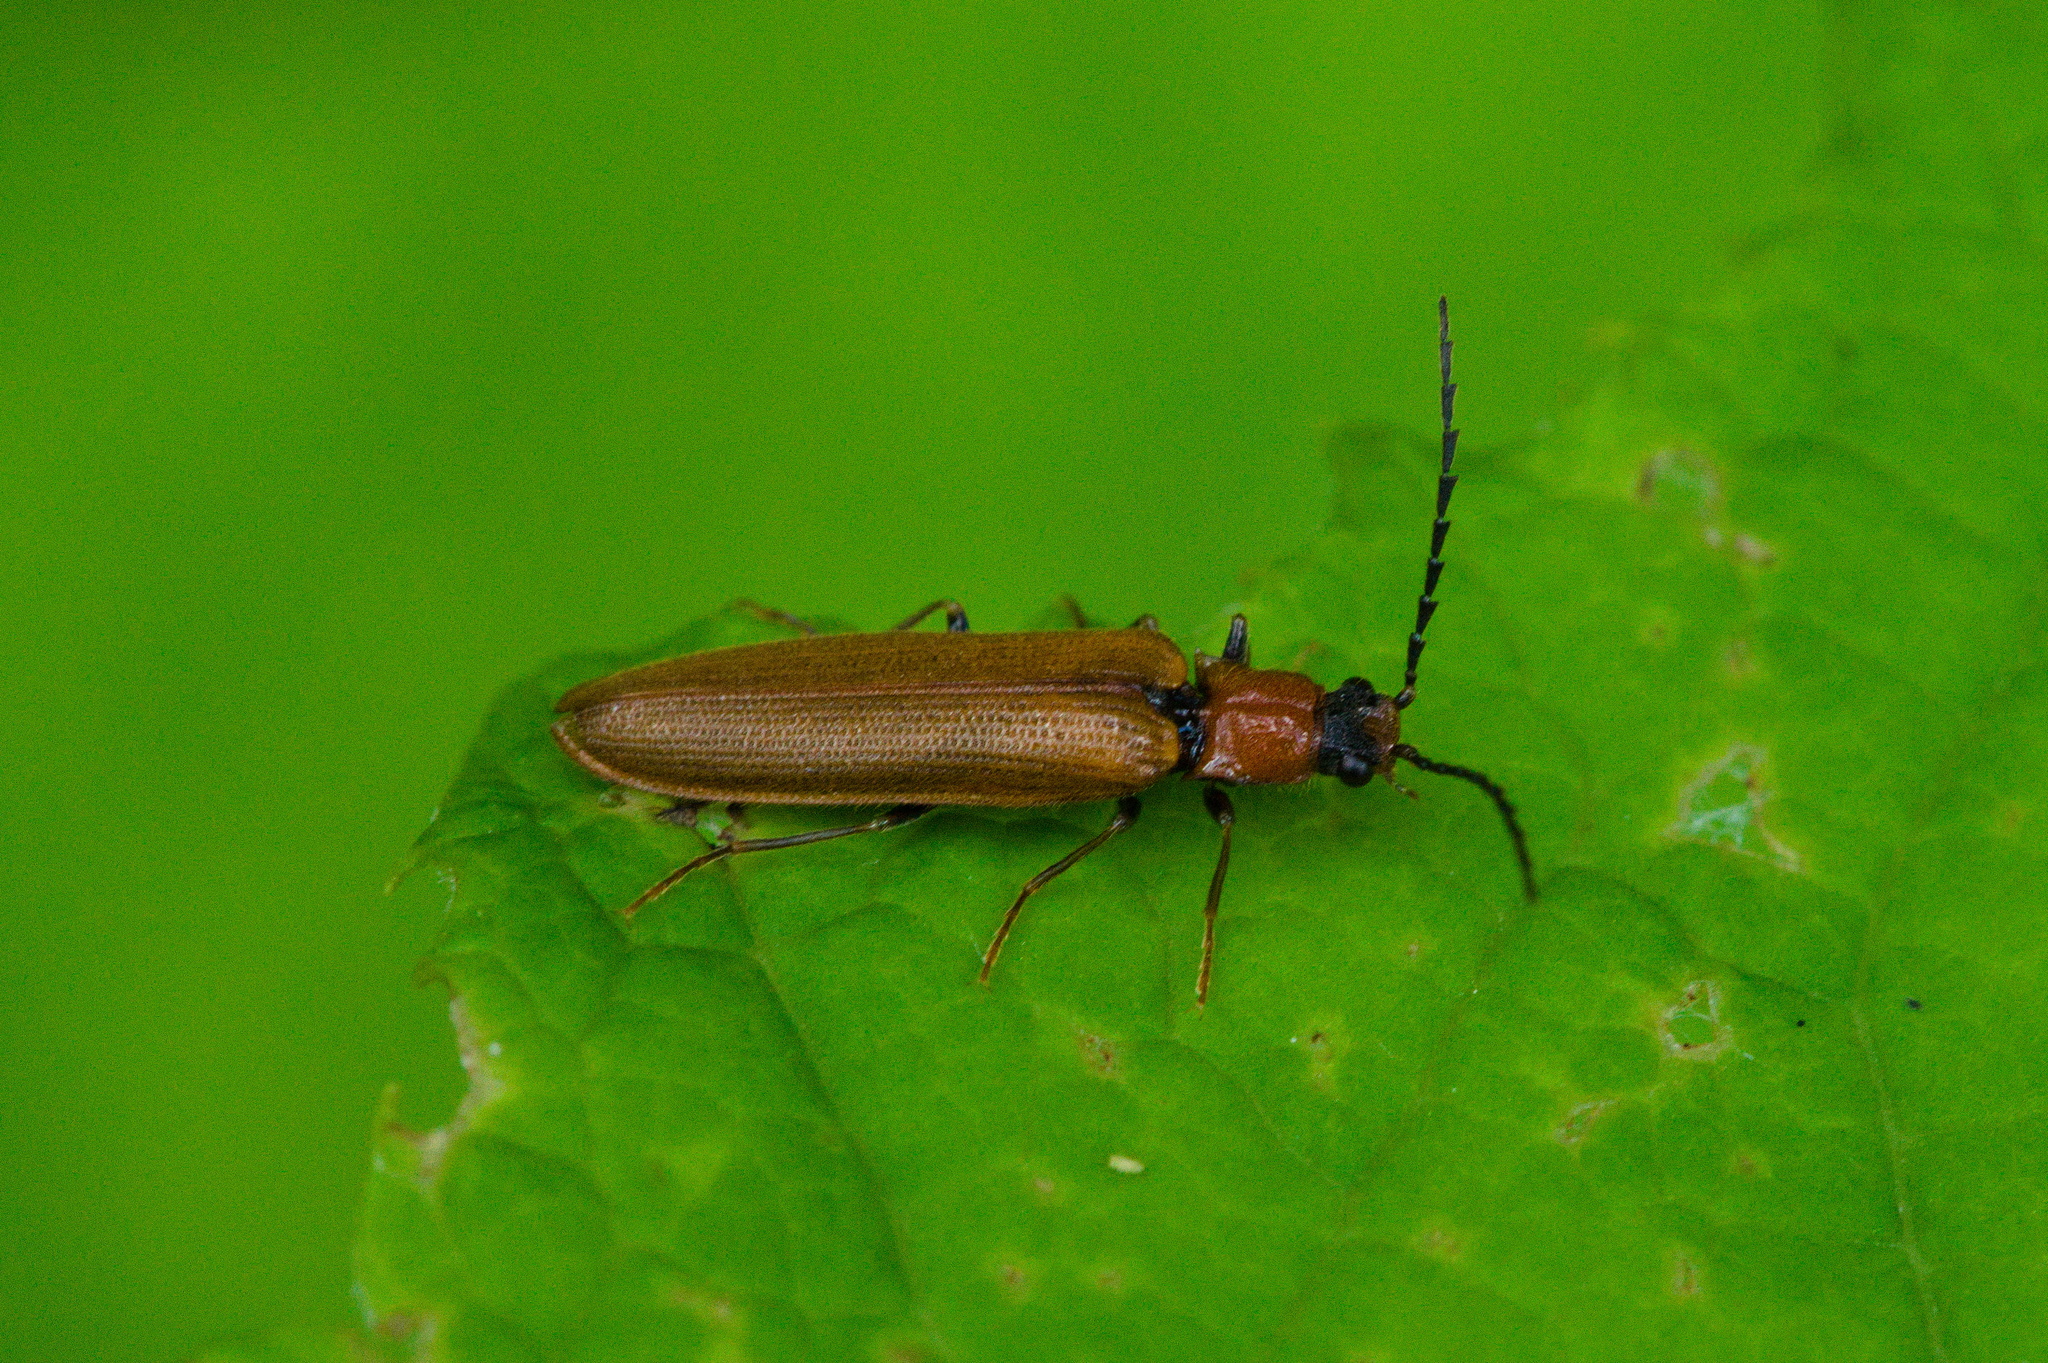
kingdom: Animalia
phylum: Arthropoda
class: Insecta
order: Coleoptera
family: Elateridae
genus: Denticollis
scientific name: Denticollis linearis
